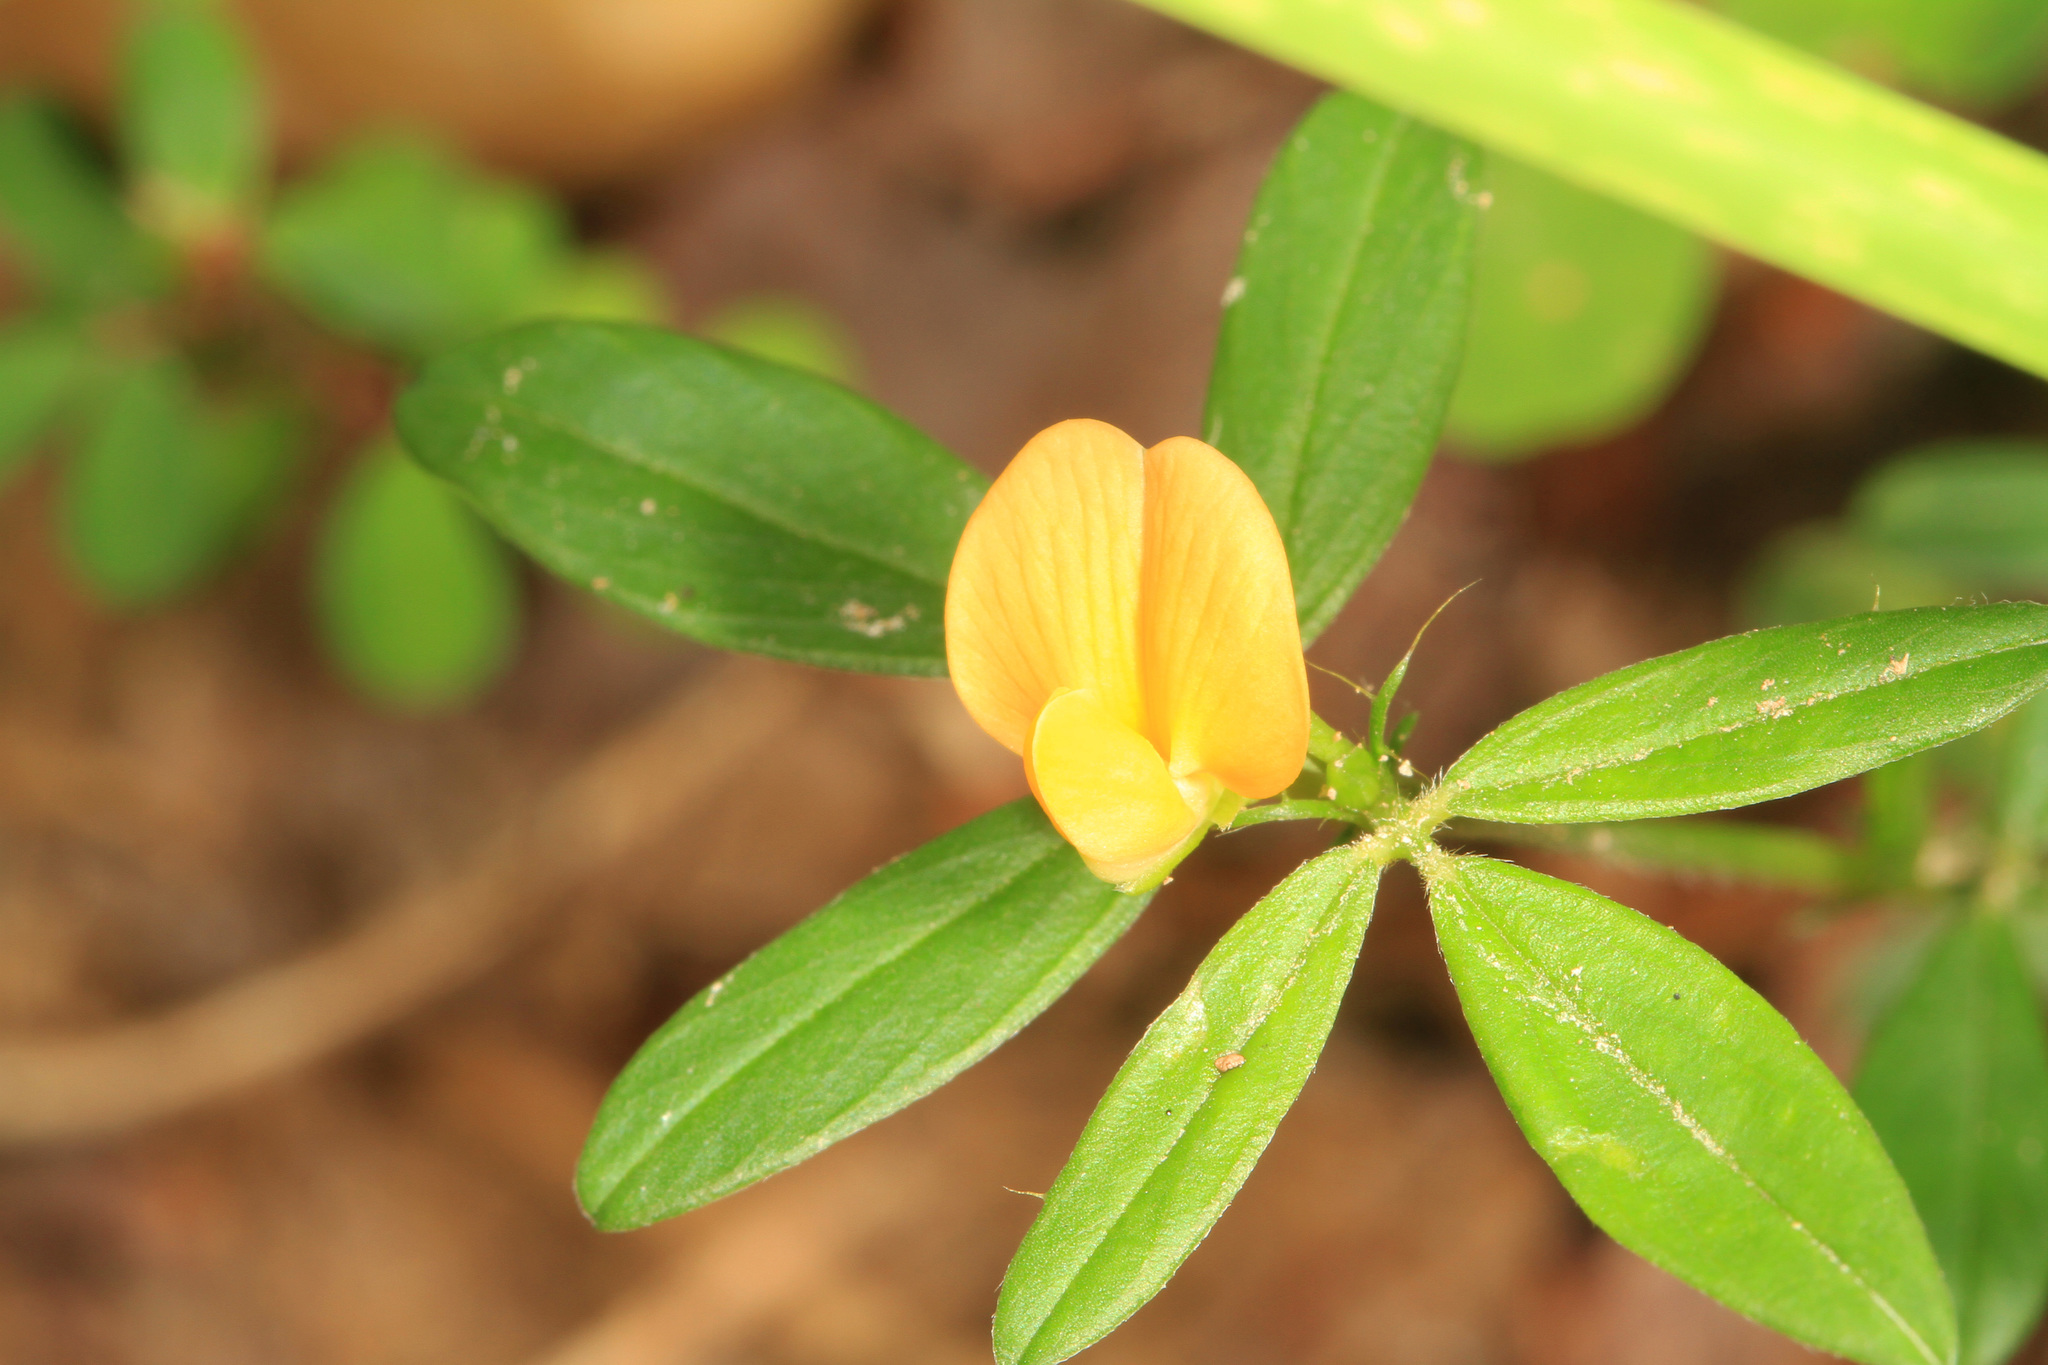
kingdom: Plantae
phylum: Tracheophyta
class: Magnoliopsida
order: Fabales
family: Fabaceae
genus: Stylosanthes
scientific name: Stylosanthes biflora
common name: Two-flower pencil-flower
